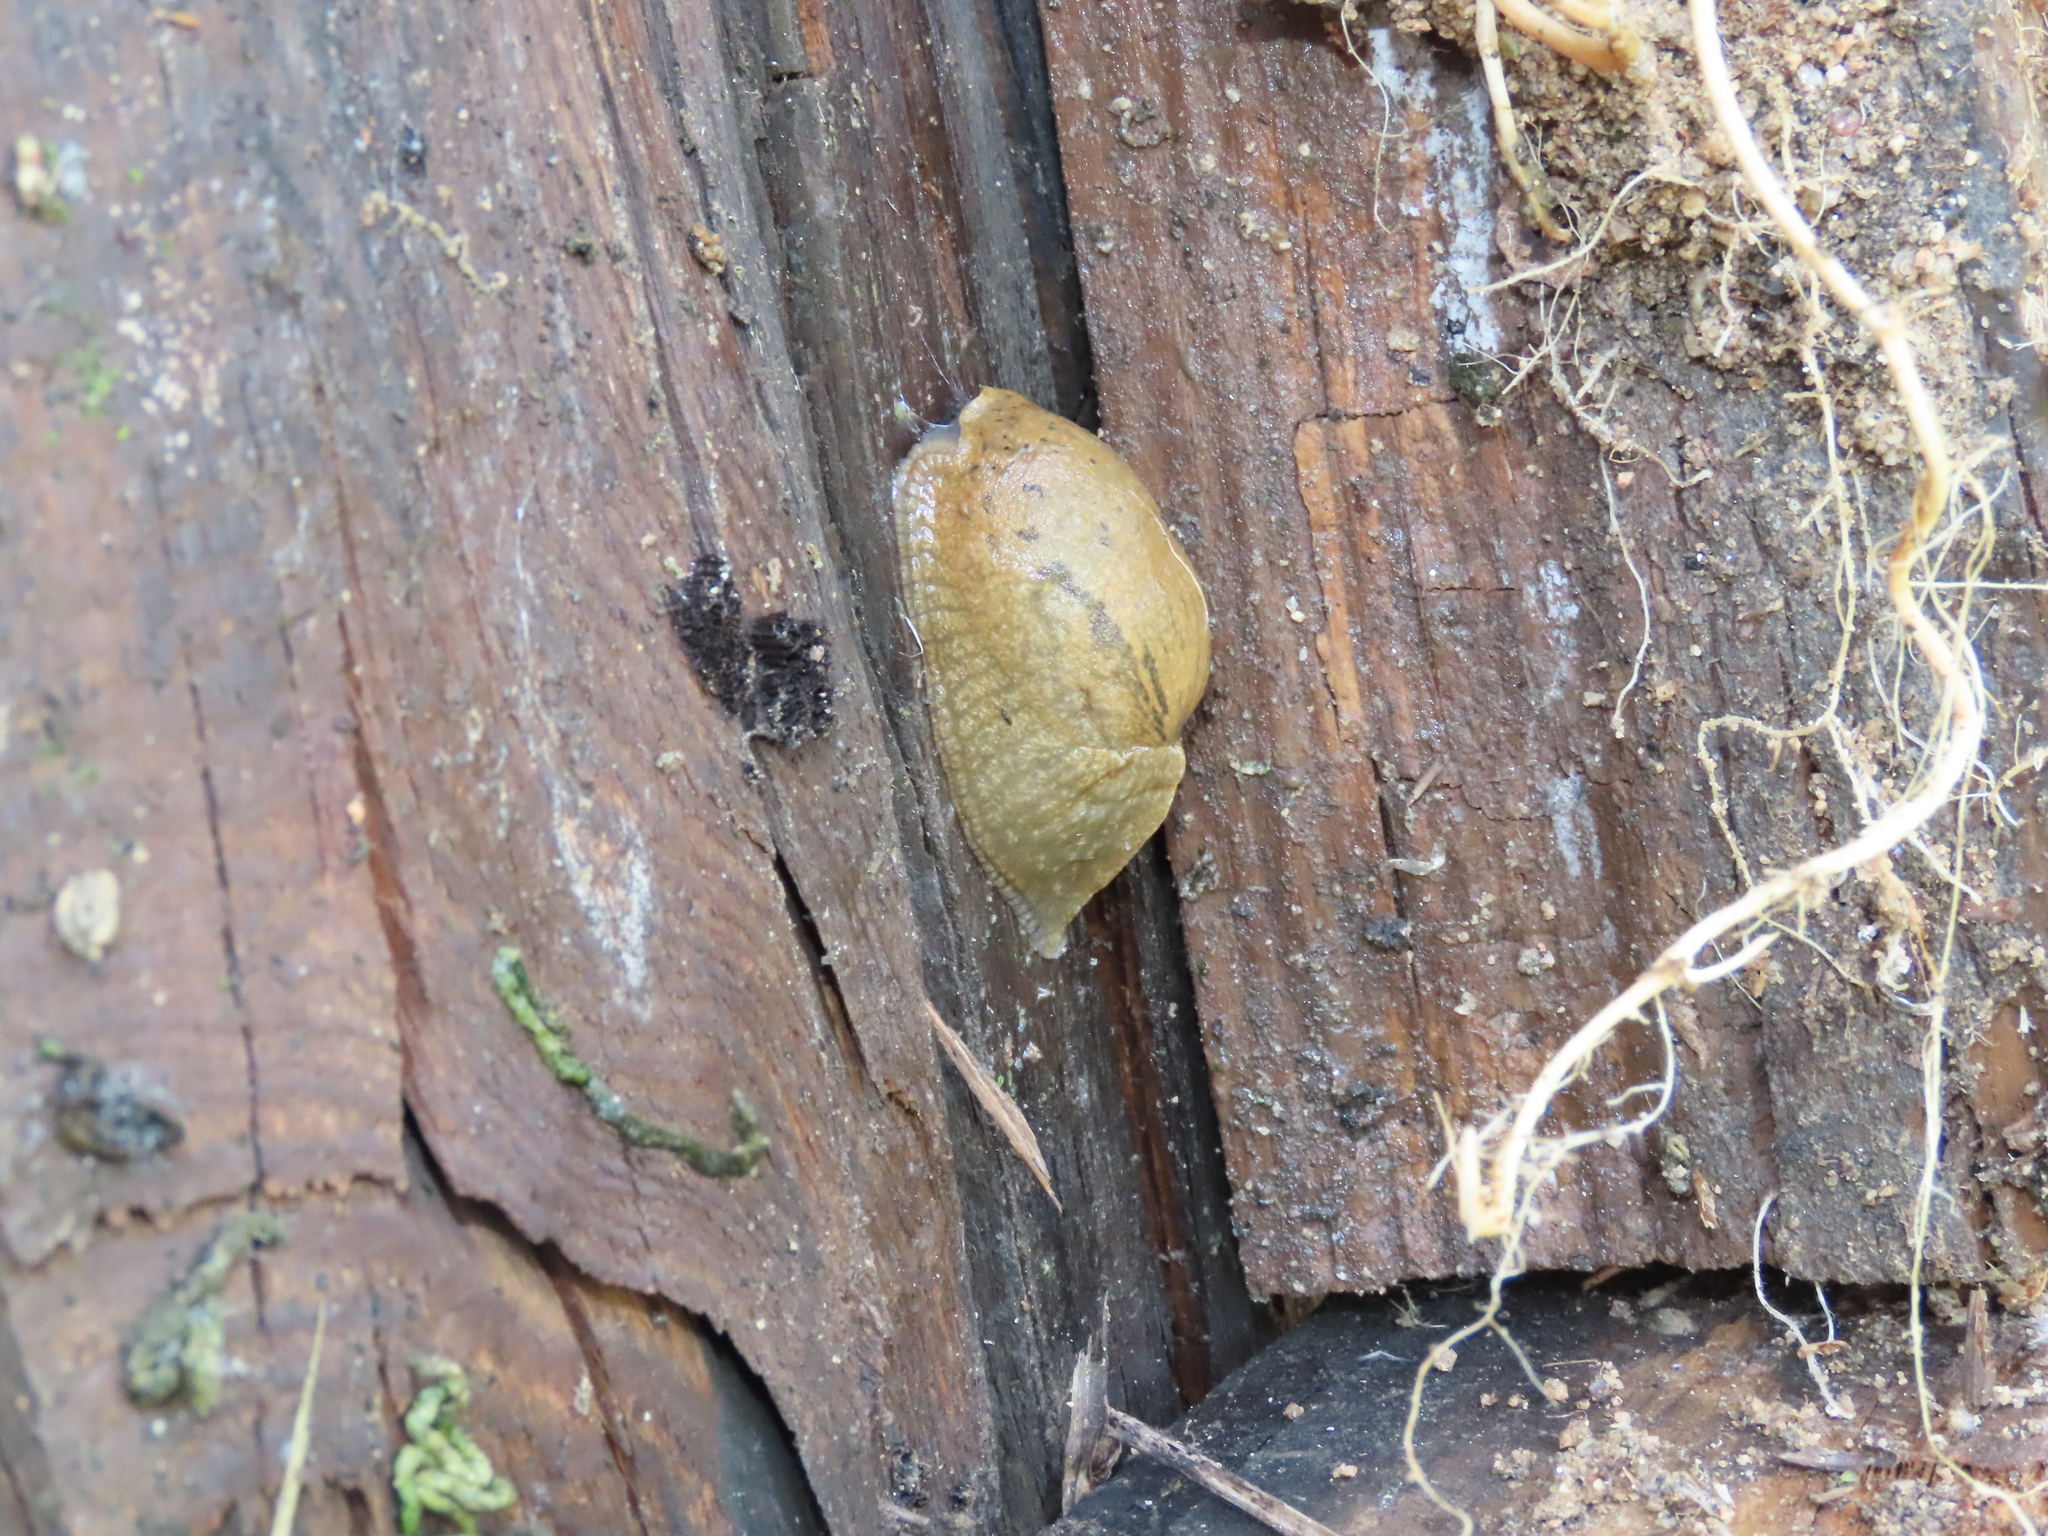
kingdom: Animalia
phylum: Mollusca
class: Gastropoda
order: Stylommatophora
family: Parmacellidae
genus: Drusia
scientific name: Drusia valenciennii
